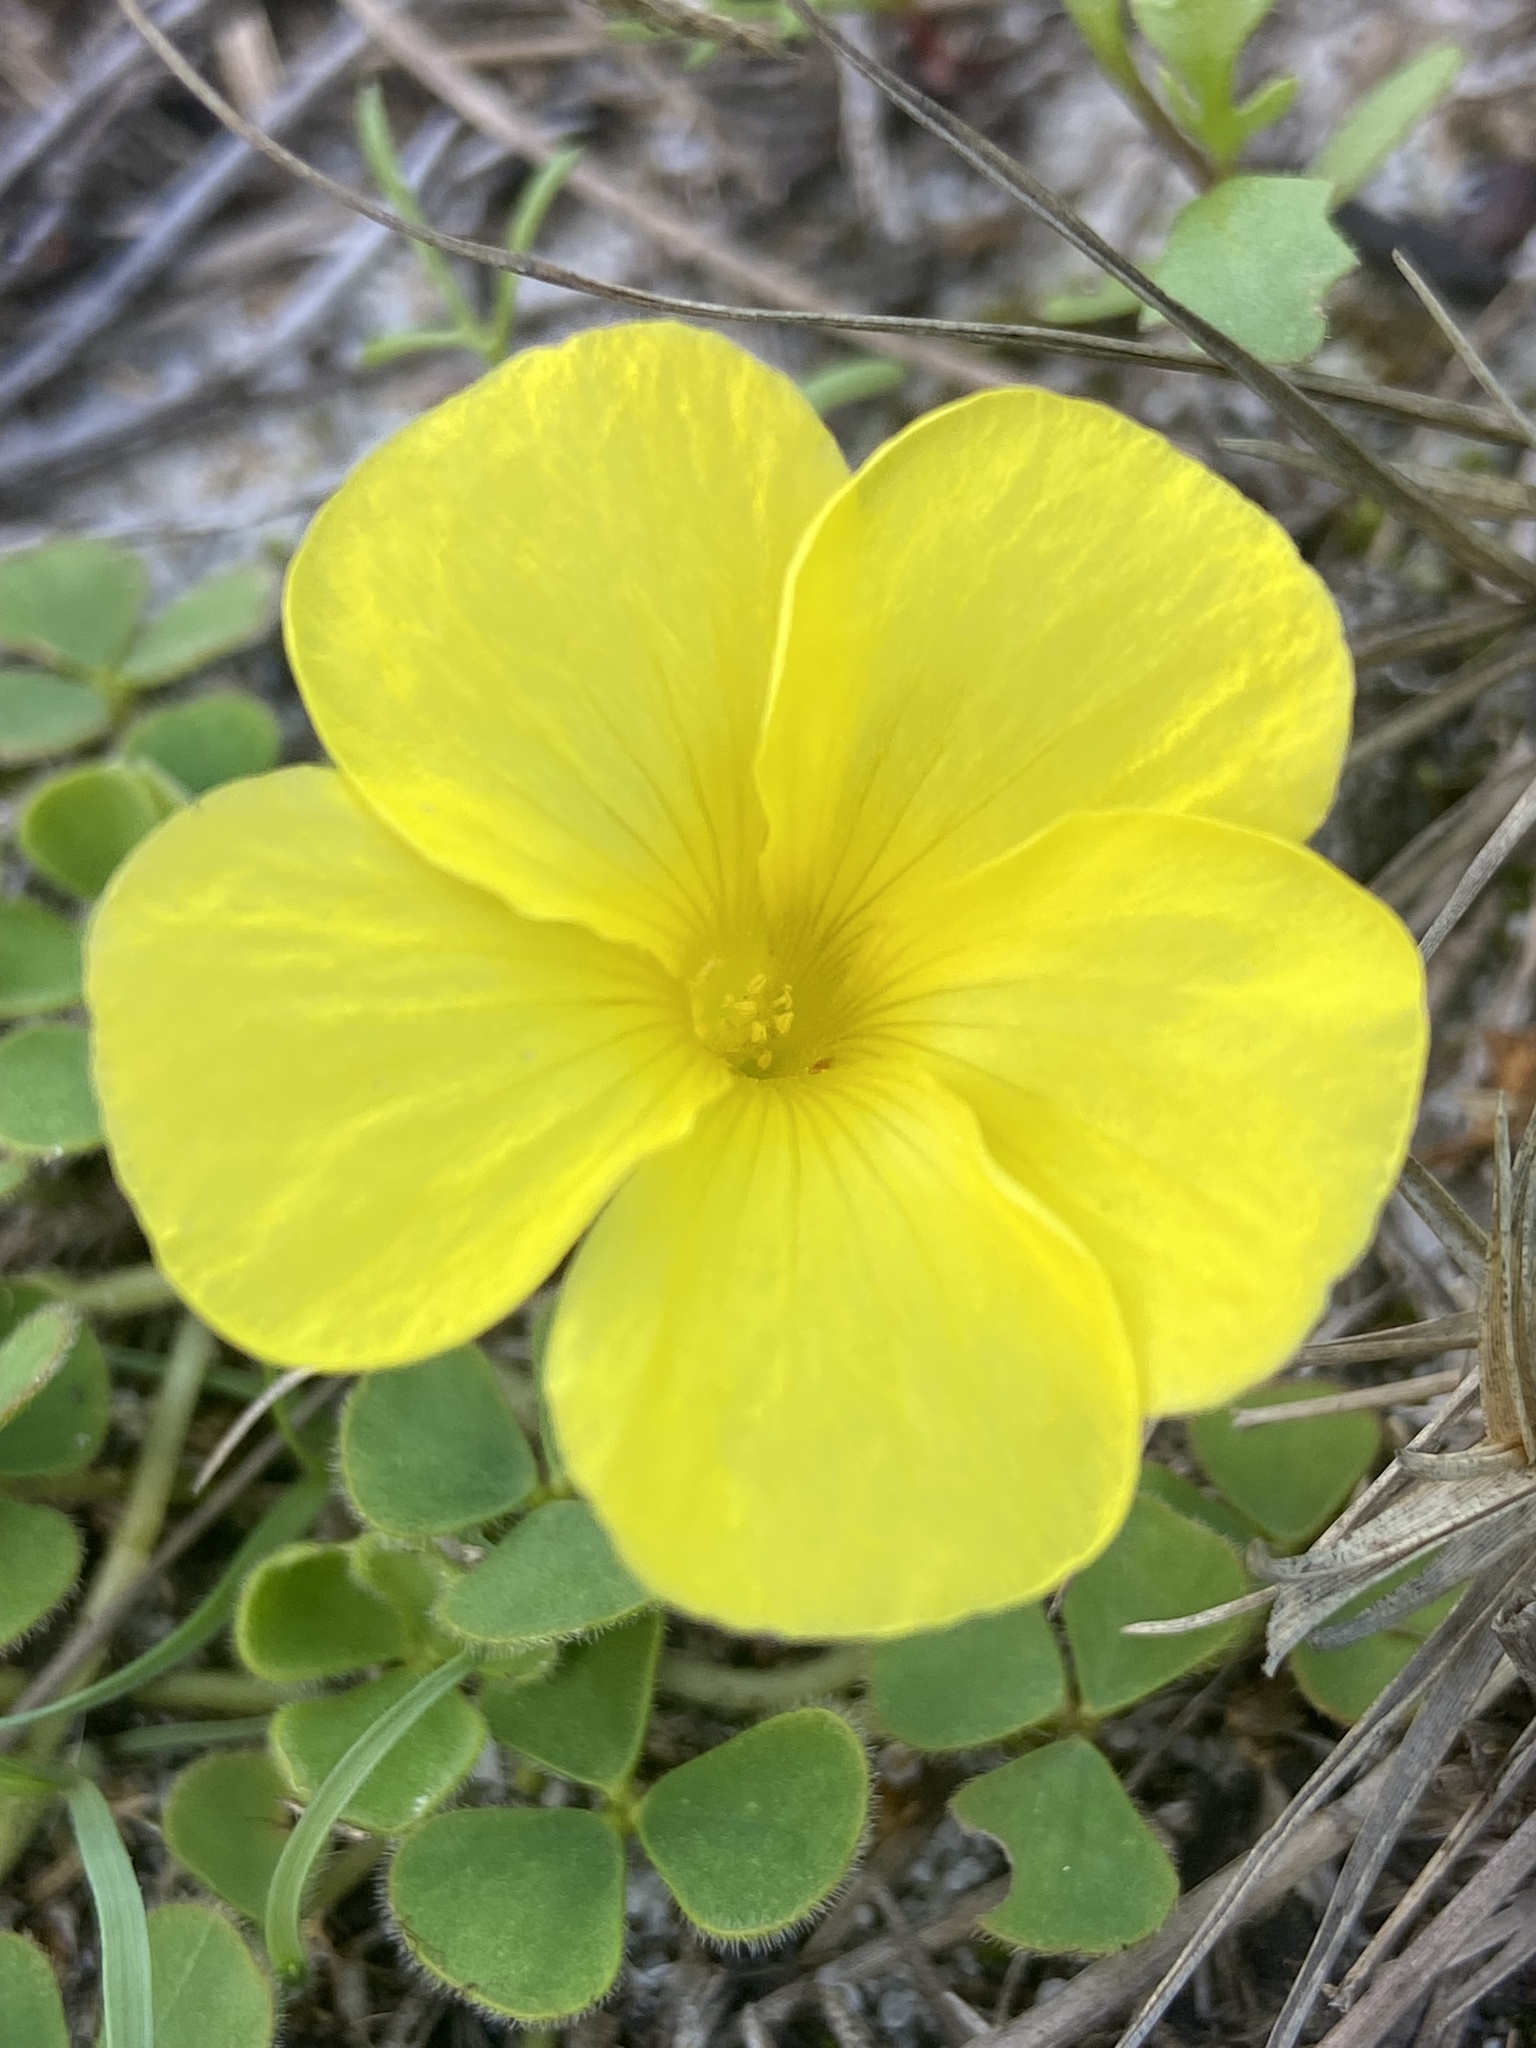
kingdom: Plantae
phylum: Tracheophyta
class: Magnoliopsida
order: Oxalidales
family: Oxalidaceae
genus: Oxalis
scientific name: Oxalis luteola
